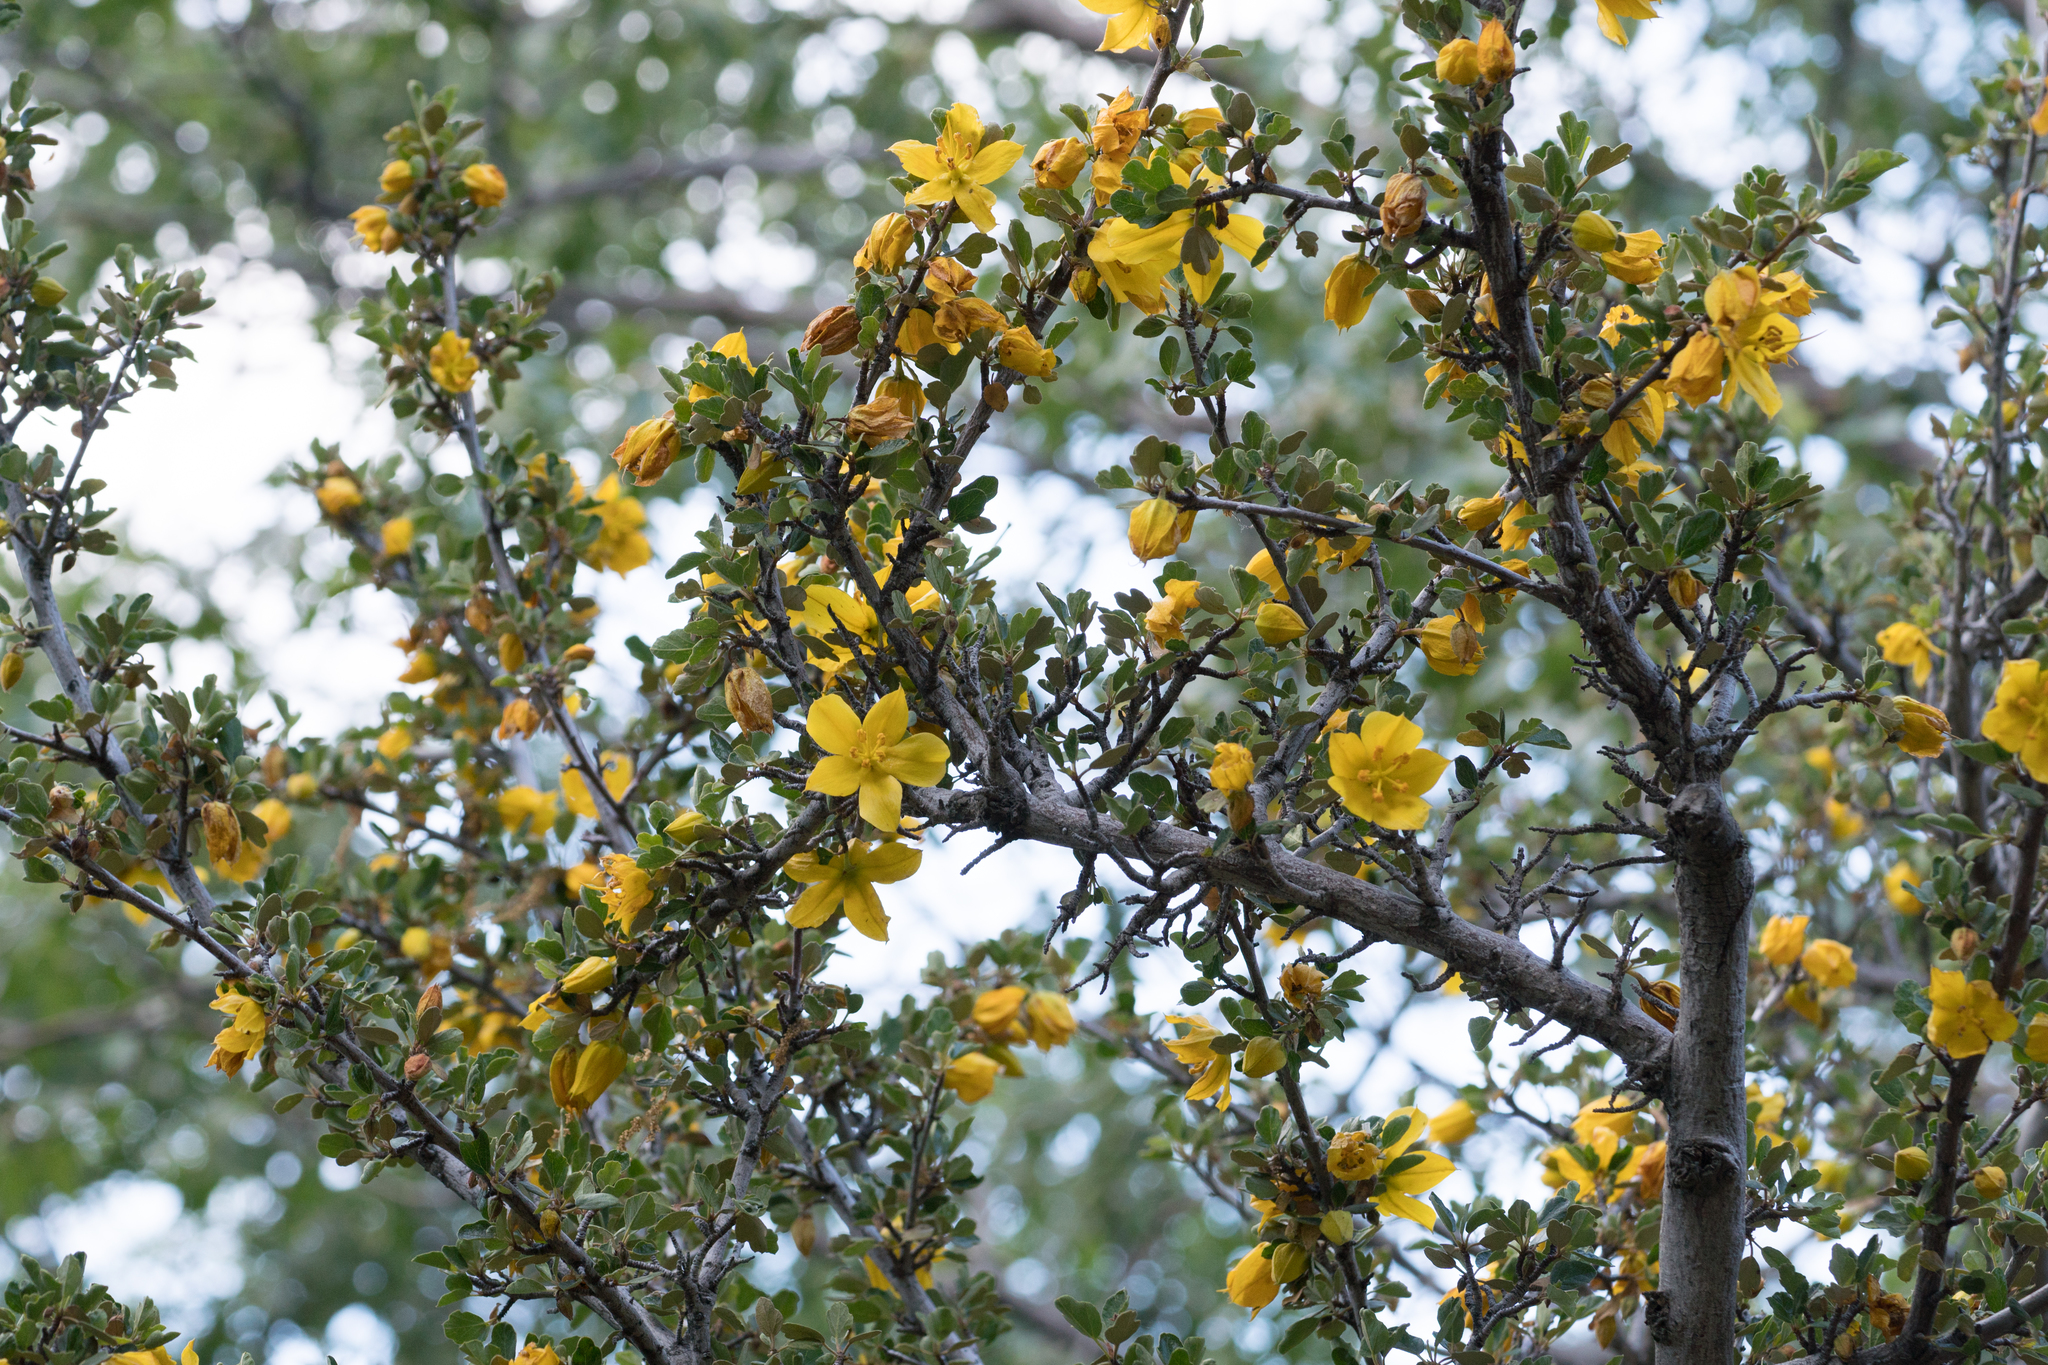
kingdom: Plantae
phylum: Tracheophyta
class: Magnoliopsida
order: Malvales
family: Malvaceae
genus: Fremontodendron
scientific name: Fremontodendron californicum
